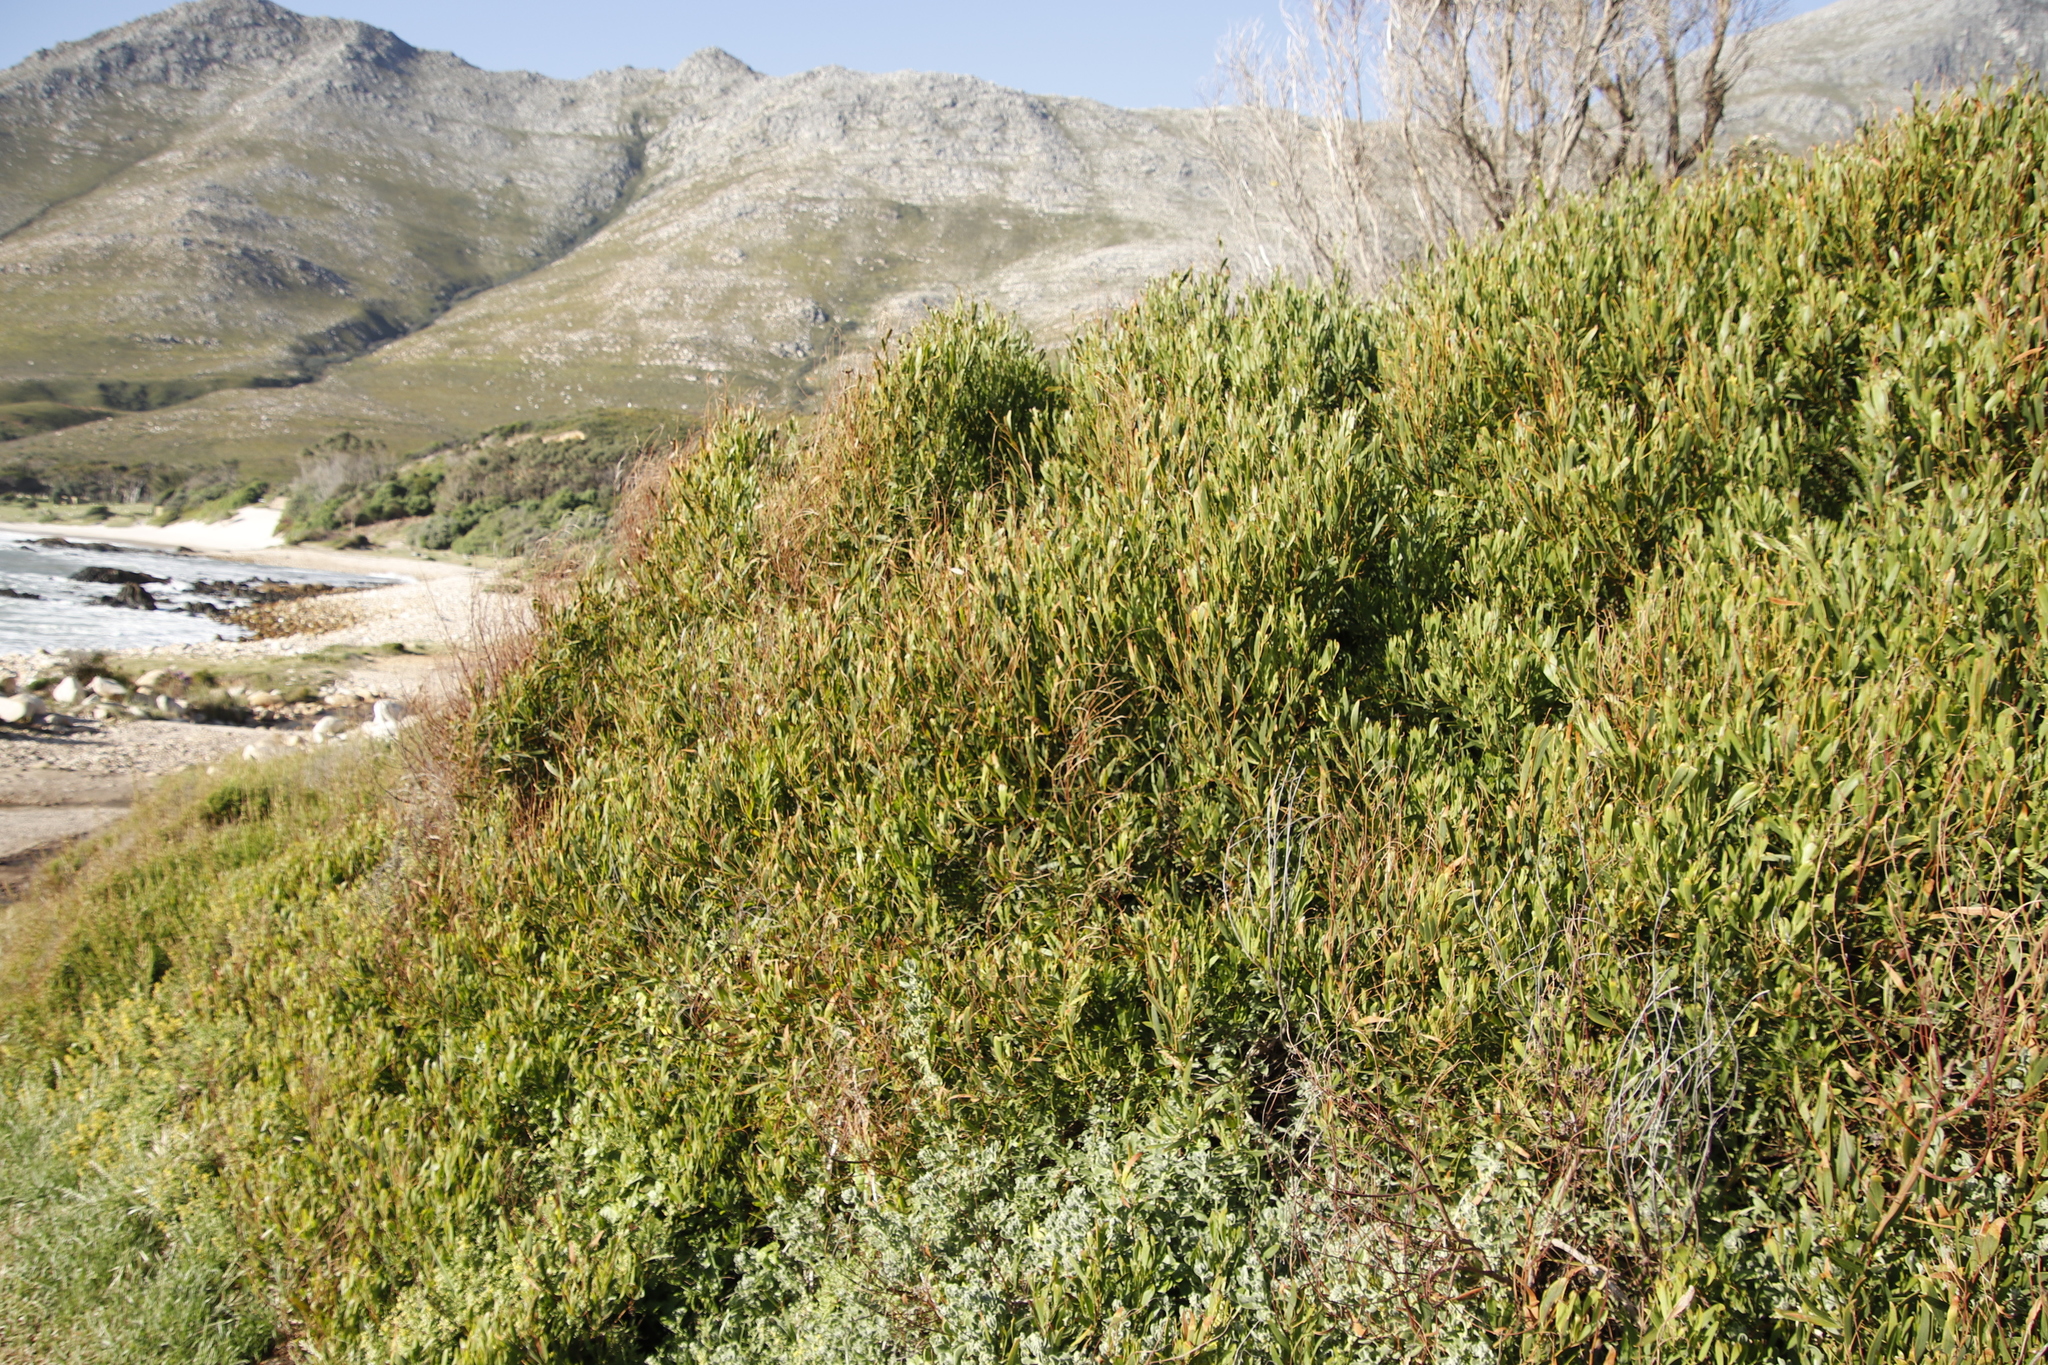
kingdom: Plantae
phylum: Tracheophyta
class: Magnoliopsida
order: Fabales
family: Fabaceae
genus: Acacia
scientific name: Acacia cyclops
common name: Coastal wattle
